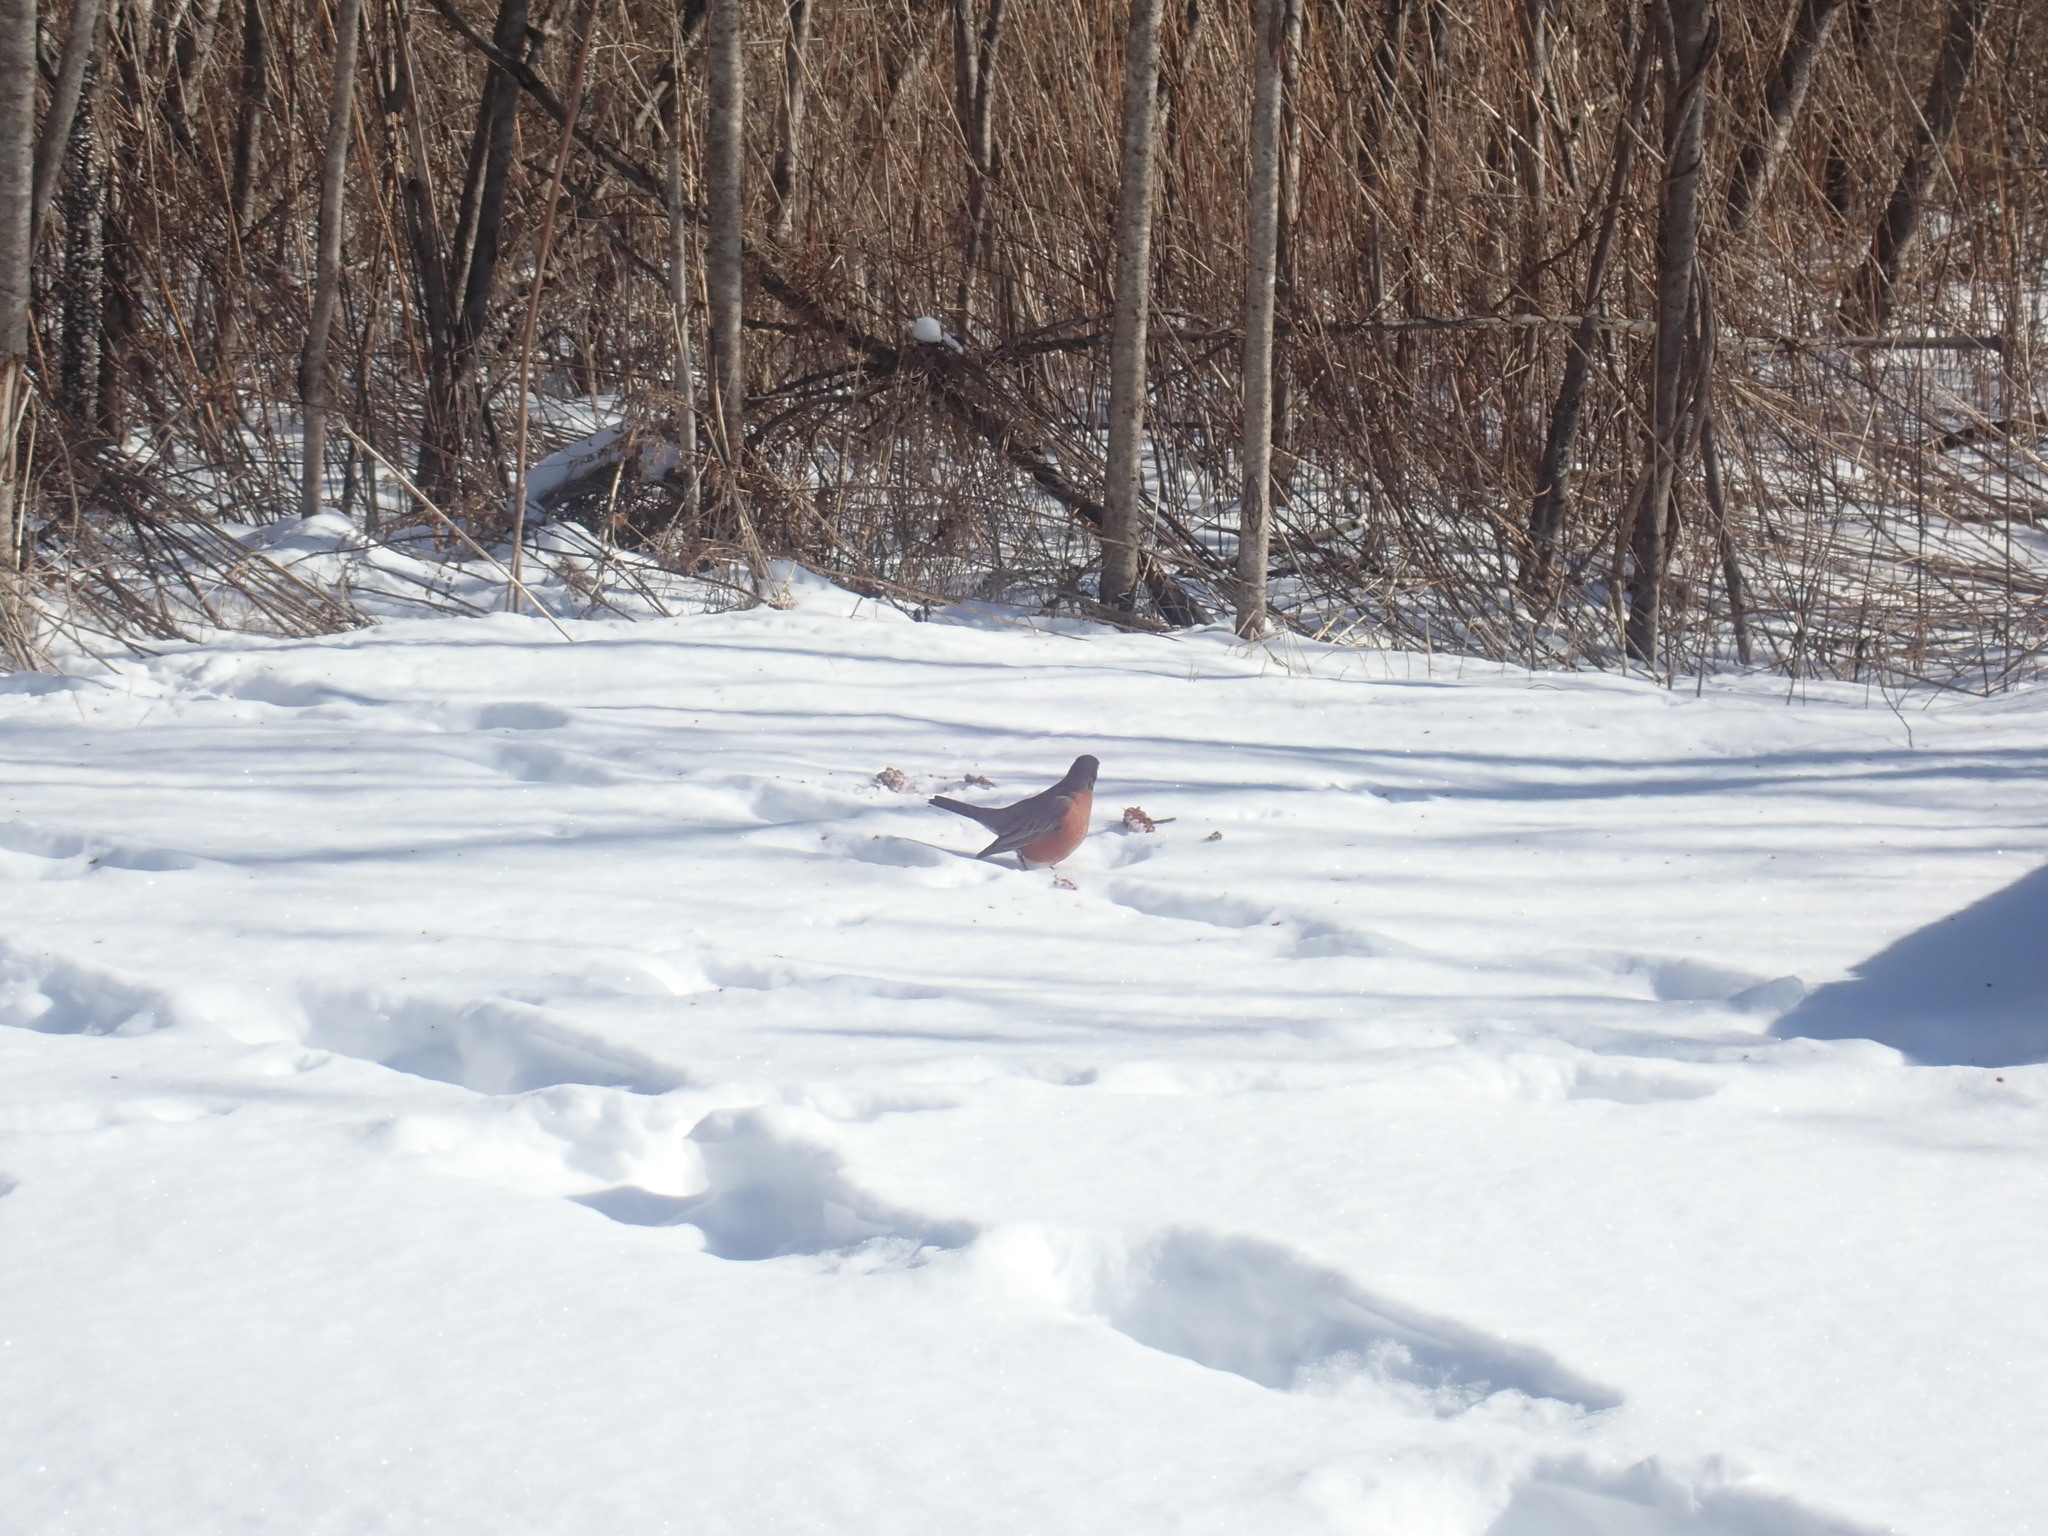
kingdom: Animalia
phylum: Chordata
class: Aves
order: Passeriformes
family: Turdidae
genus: Turdus
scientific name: Turdus migratorius
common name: American robin
